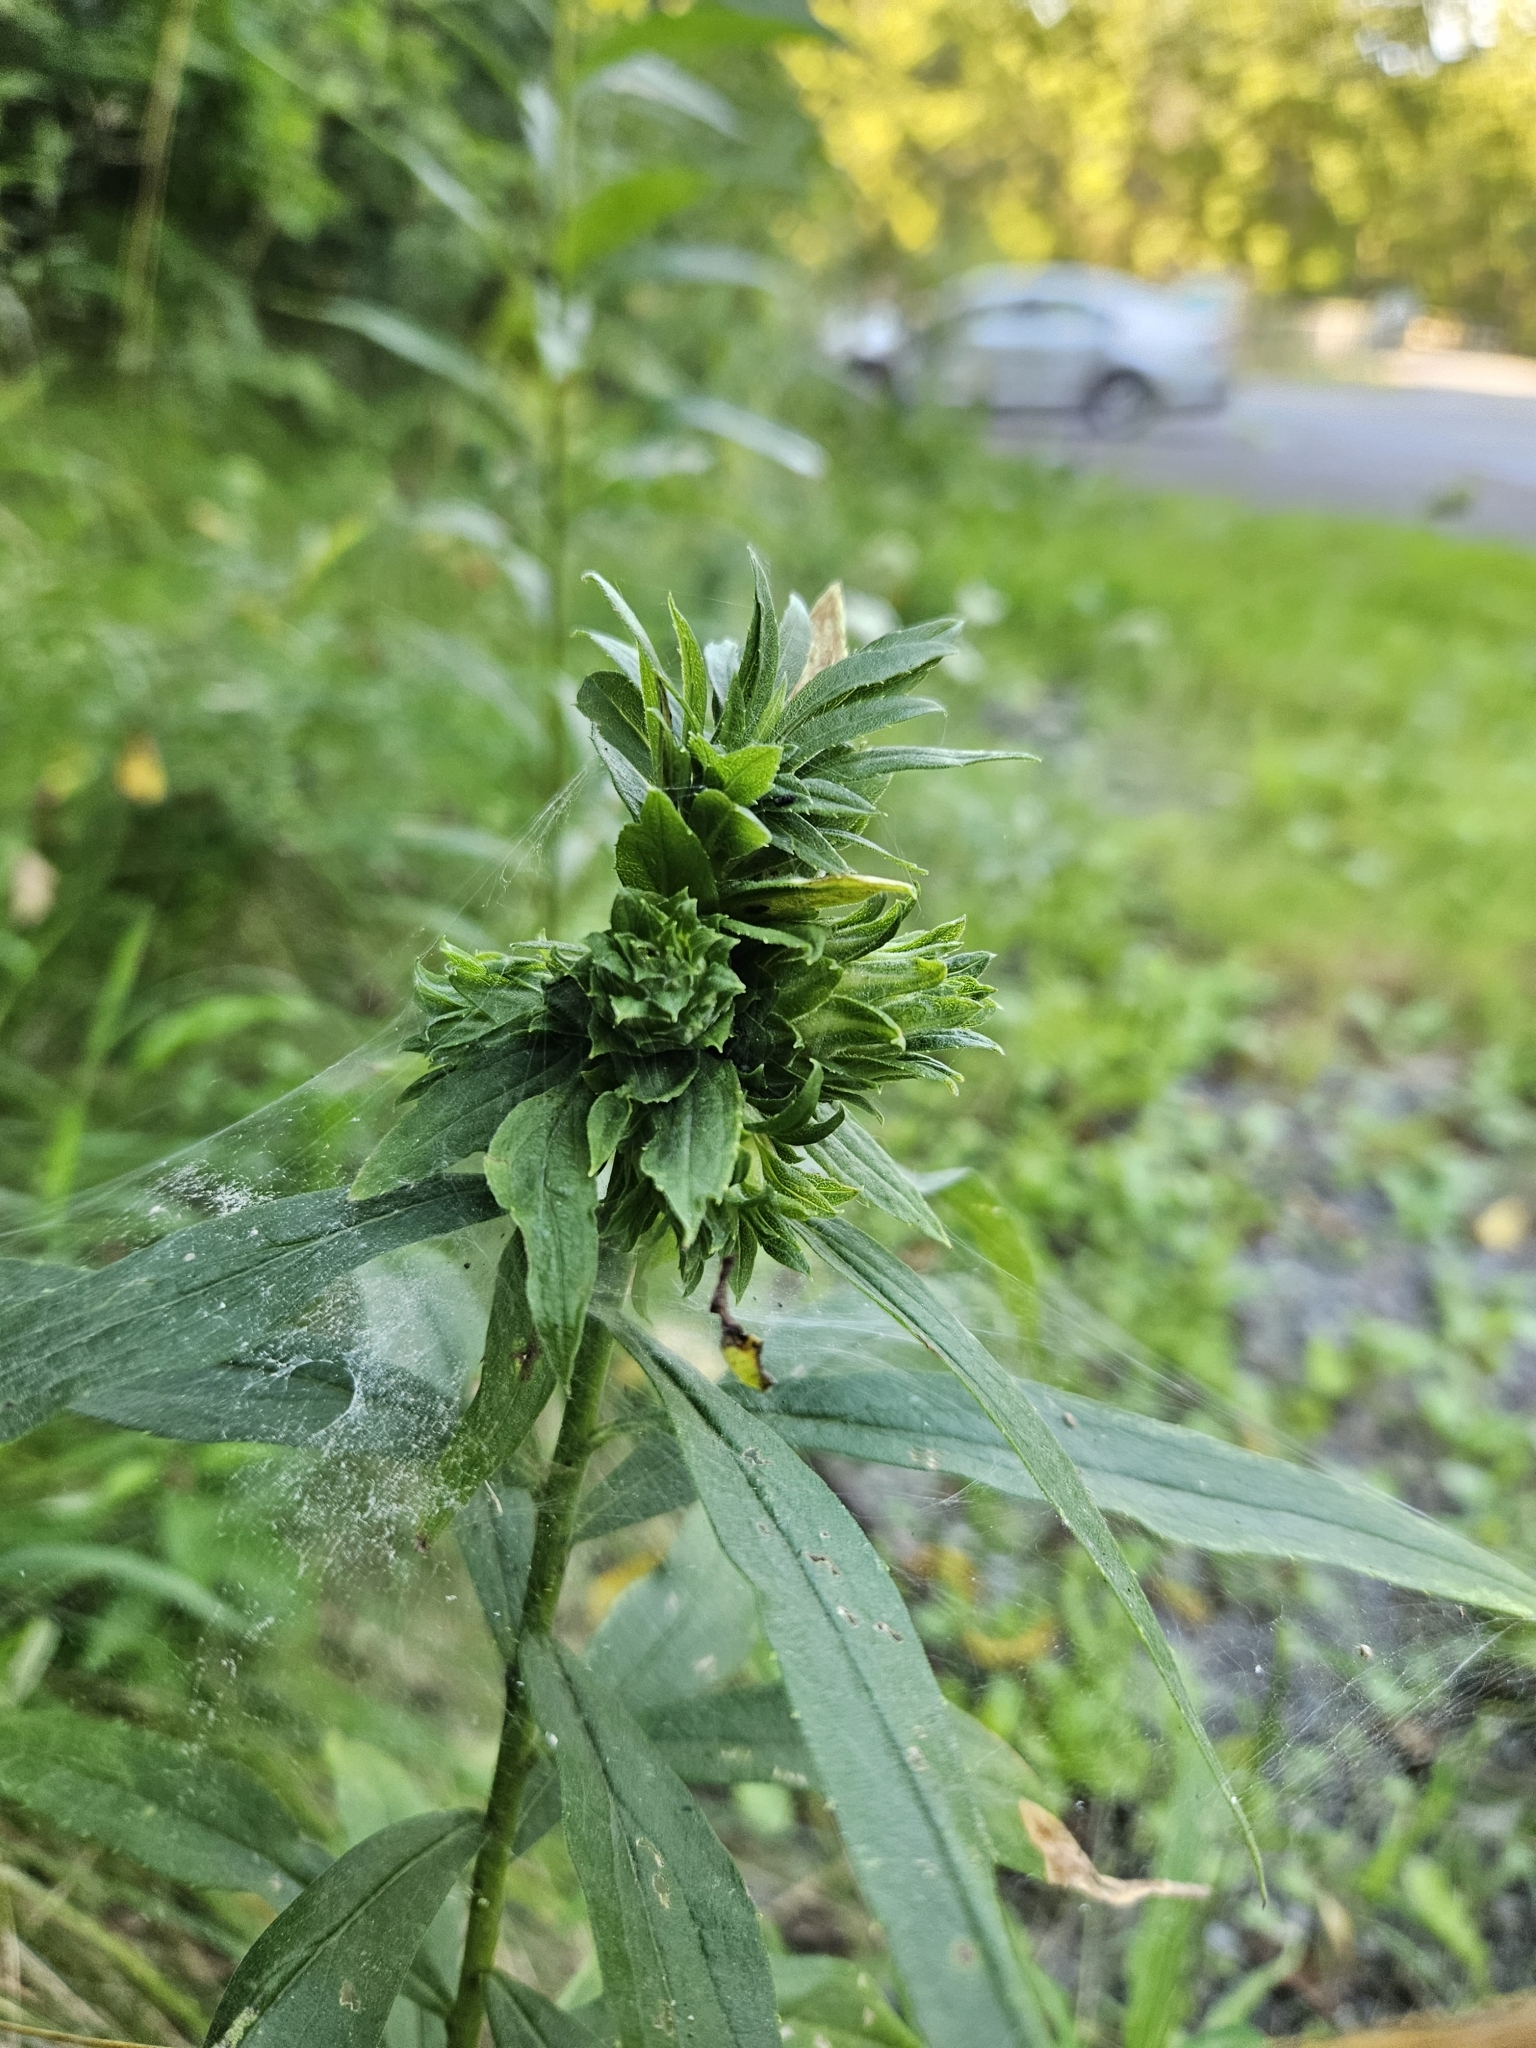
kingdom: Animalia
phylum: Arthropoda
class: Insecta
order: Diptera
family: Tephritidae
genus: Procecidochares
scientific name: Procecidochares atra
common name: Goldenrod brussels sprout gall fly
